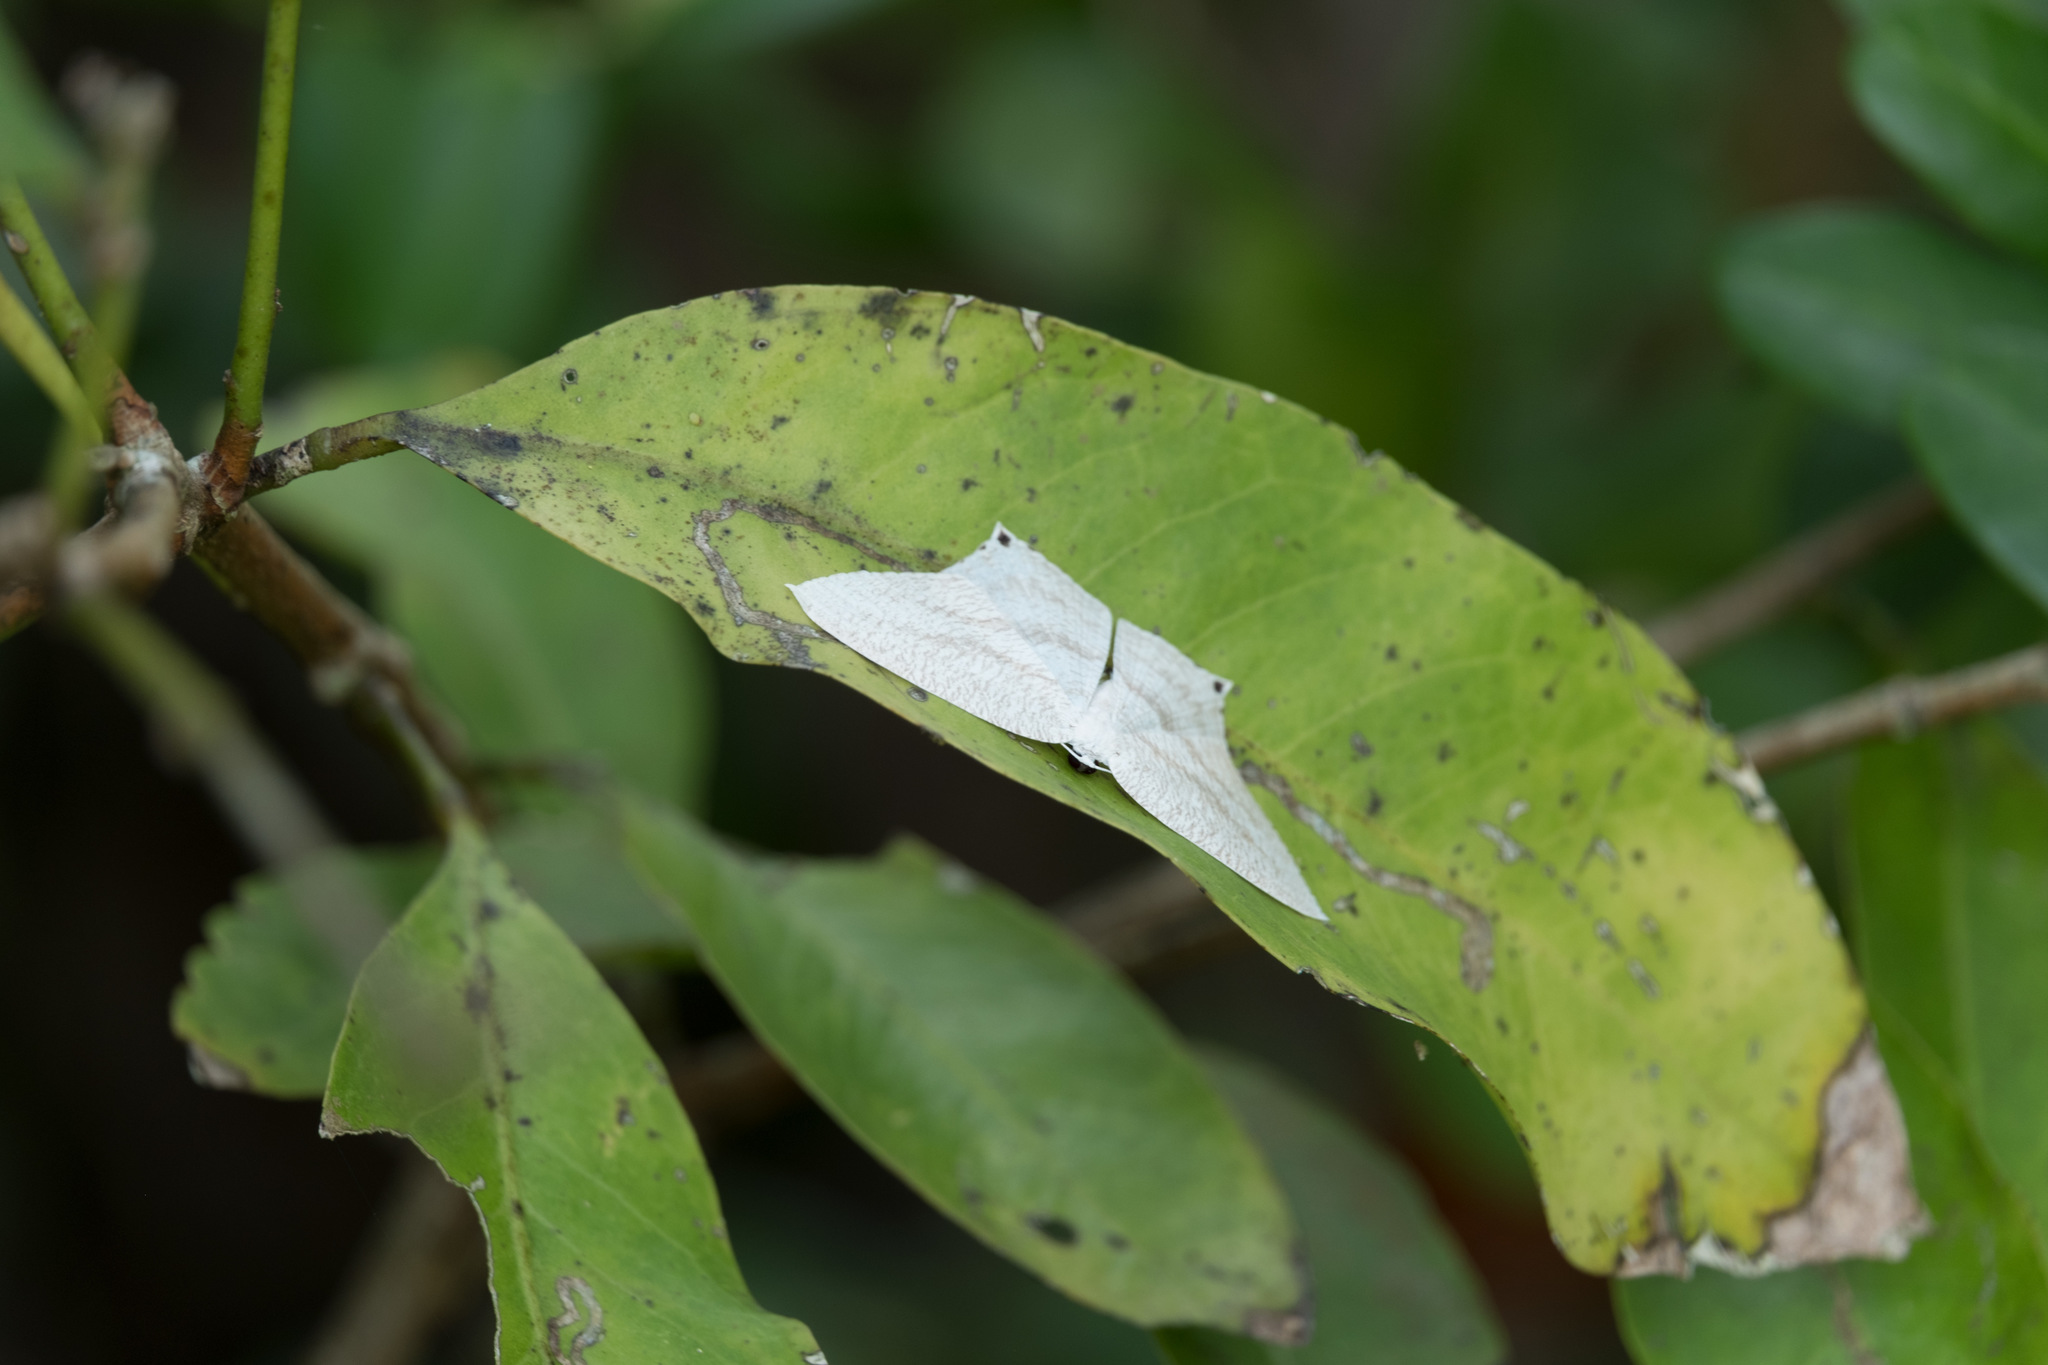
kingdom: Animalia
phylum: Arthropoda
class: Insecta
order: Lepidoptera
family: Uraniidae
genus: Acropteris
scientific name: Acropteris ciniferaria
